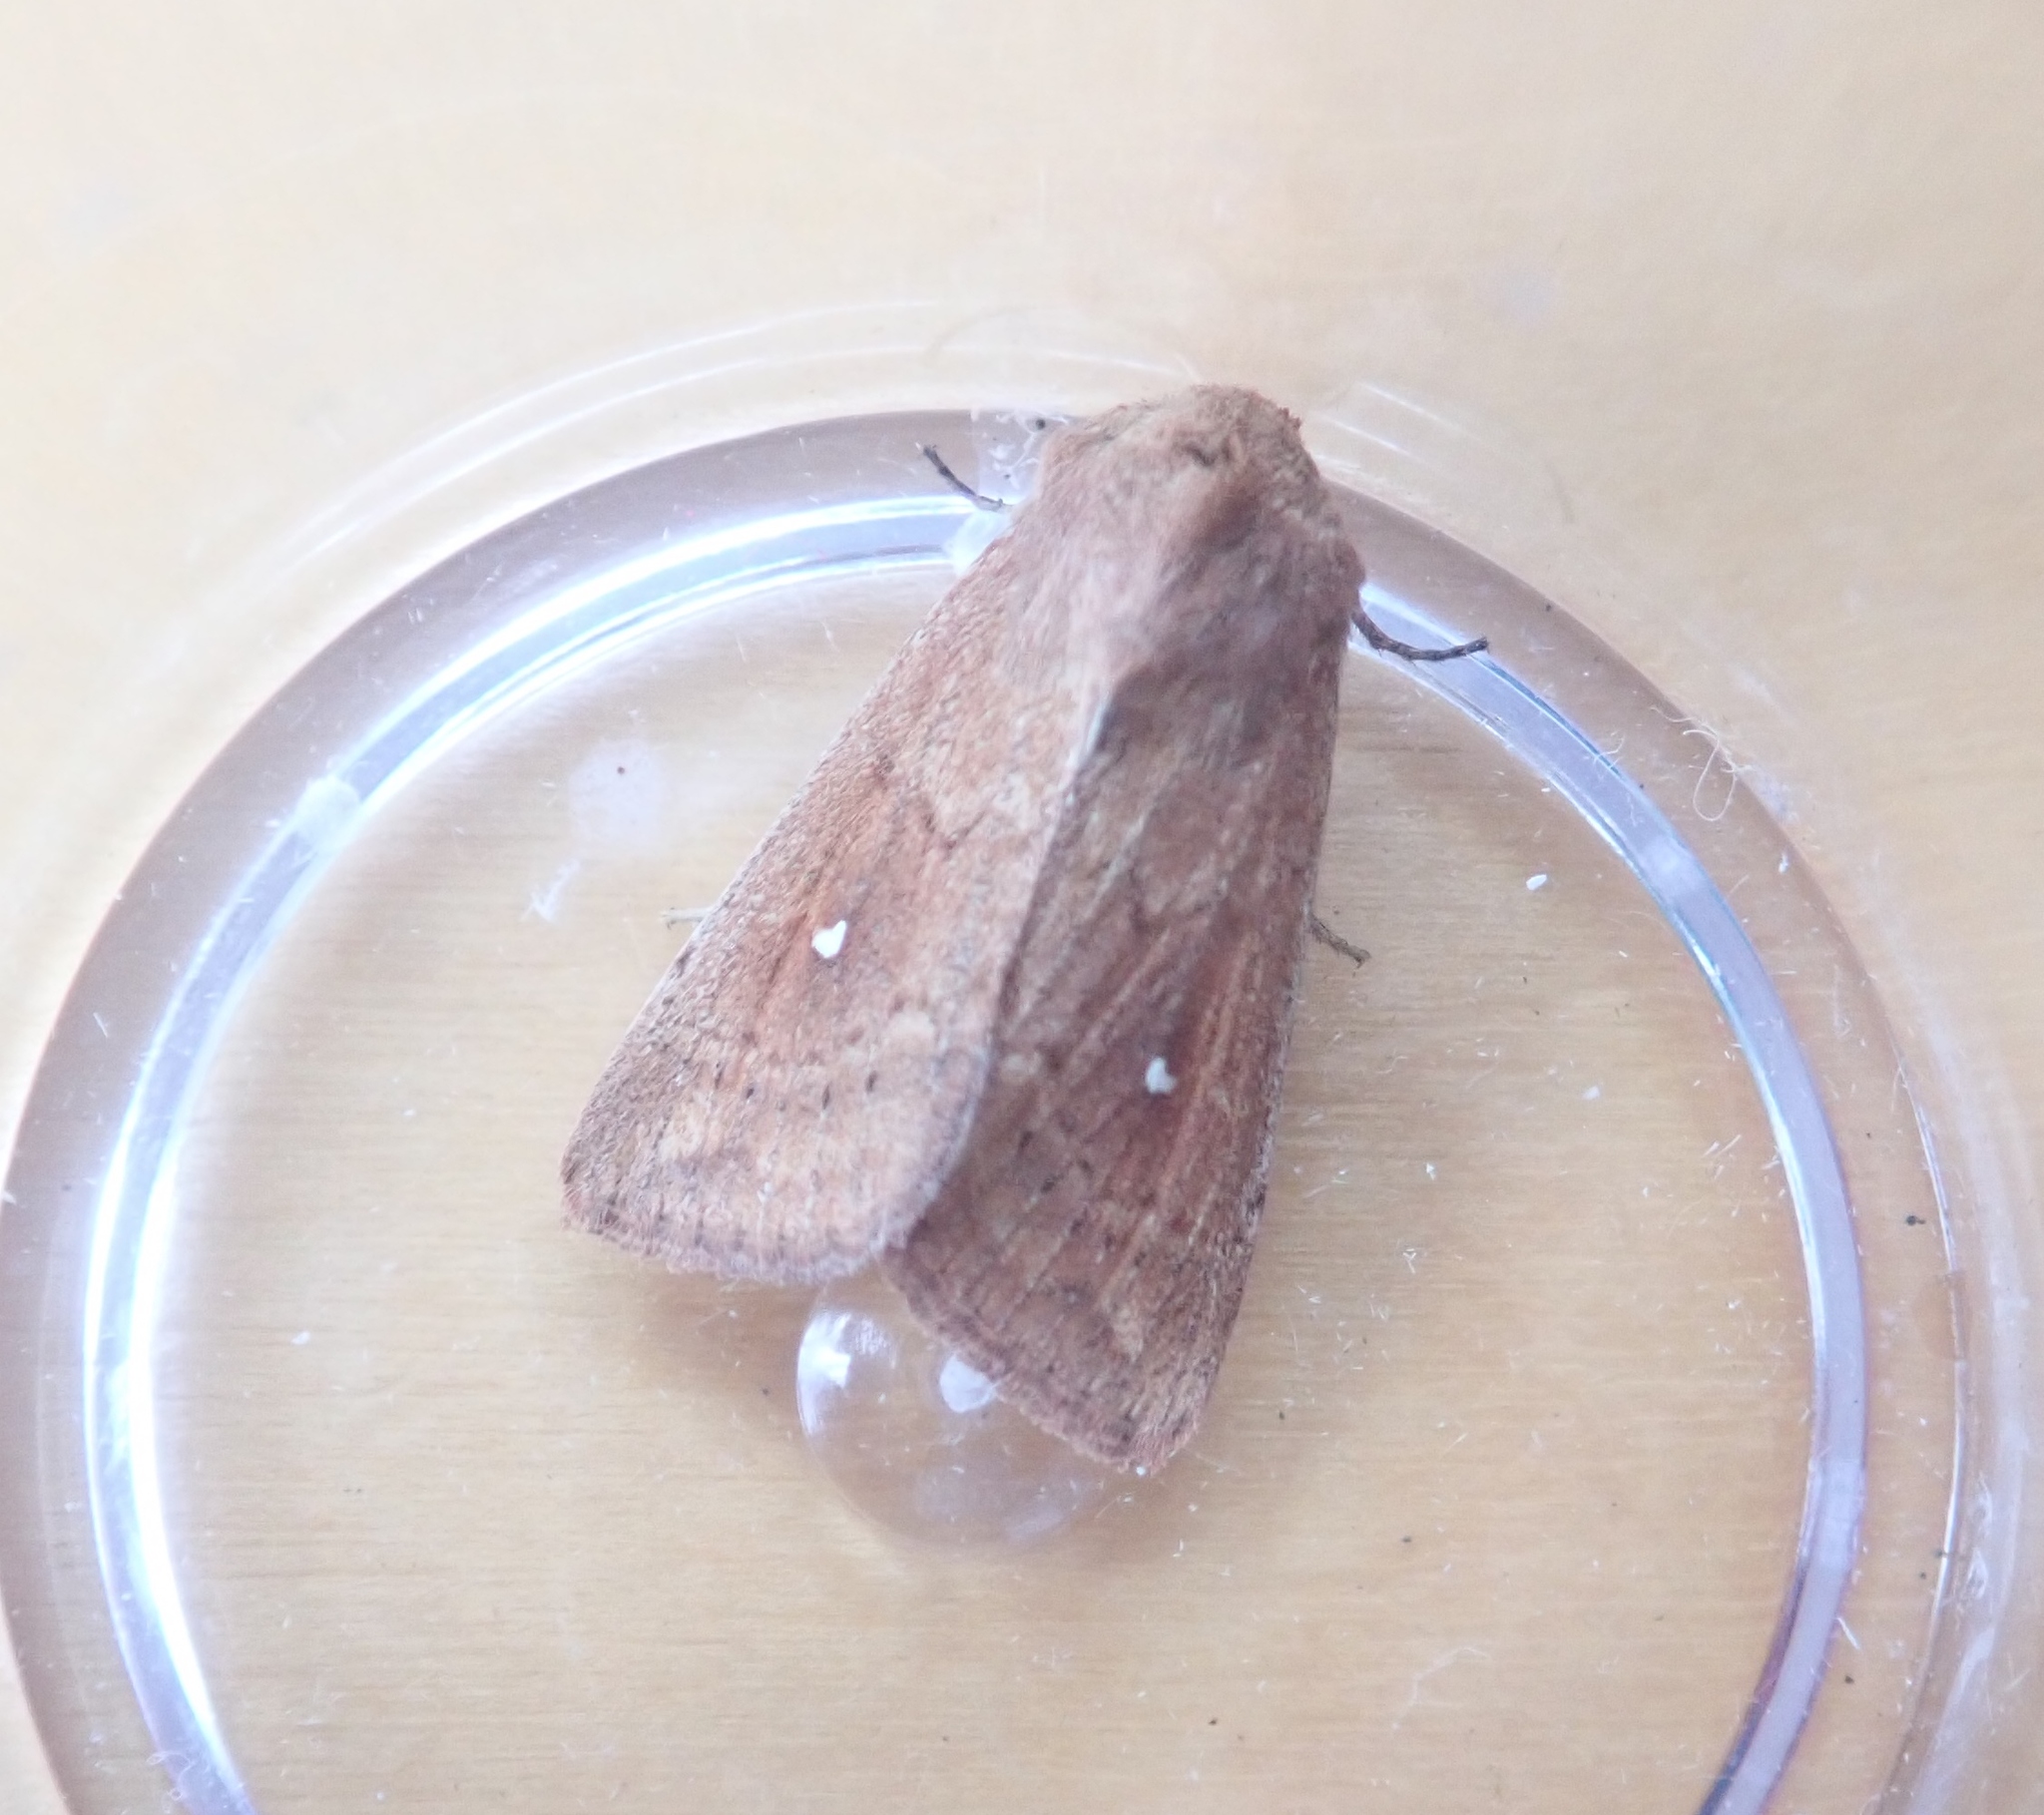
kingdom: Animalia
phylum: Arthropoda
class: Insecta
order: Lepidoptera
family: Noctuidae
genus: Mythimna
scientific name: Mythimna albipuncta
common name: White-point
